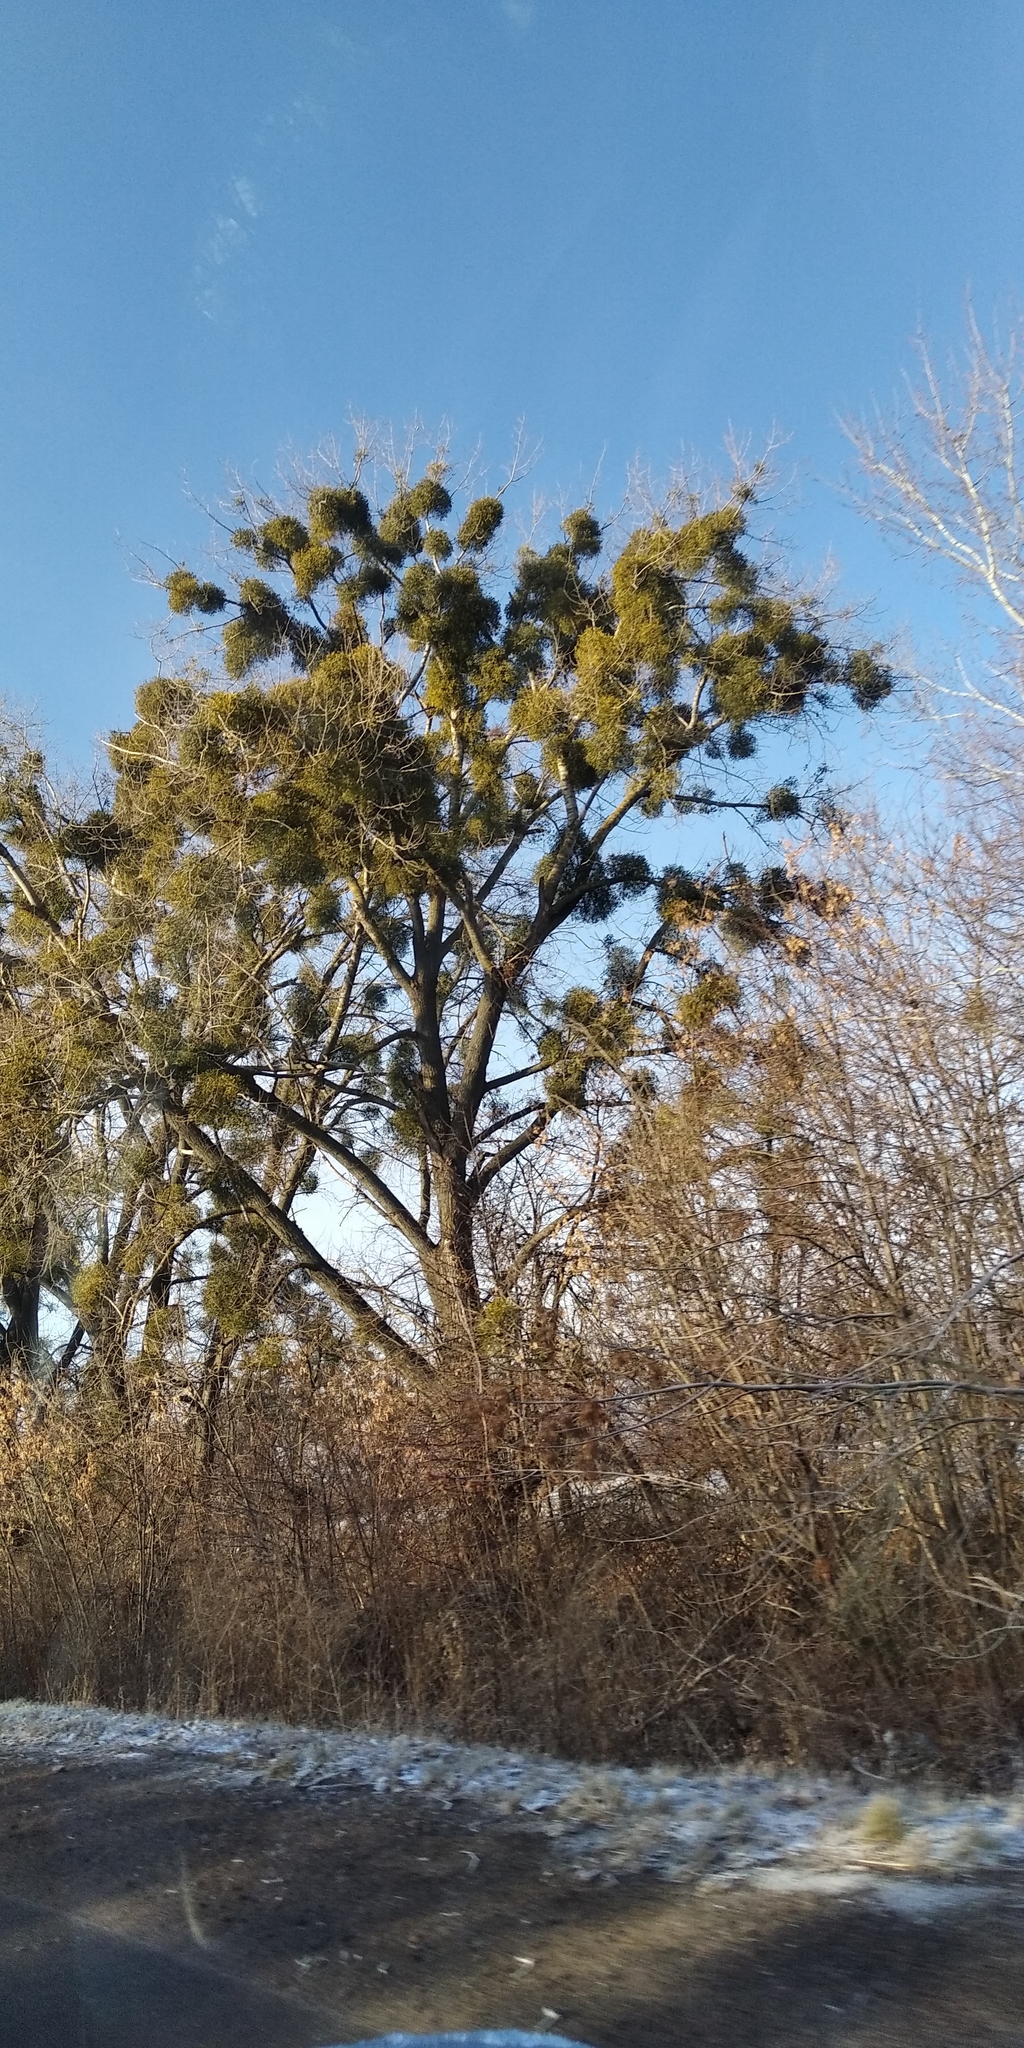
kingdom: Plantae
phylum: Tracheophyta
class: Magnoliopsida
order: Santalales
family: Viscaceae
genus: Viscum
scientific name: Viscum album
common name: Mistletoe
